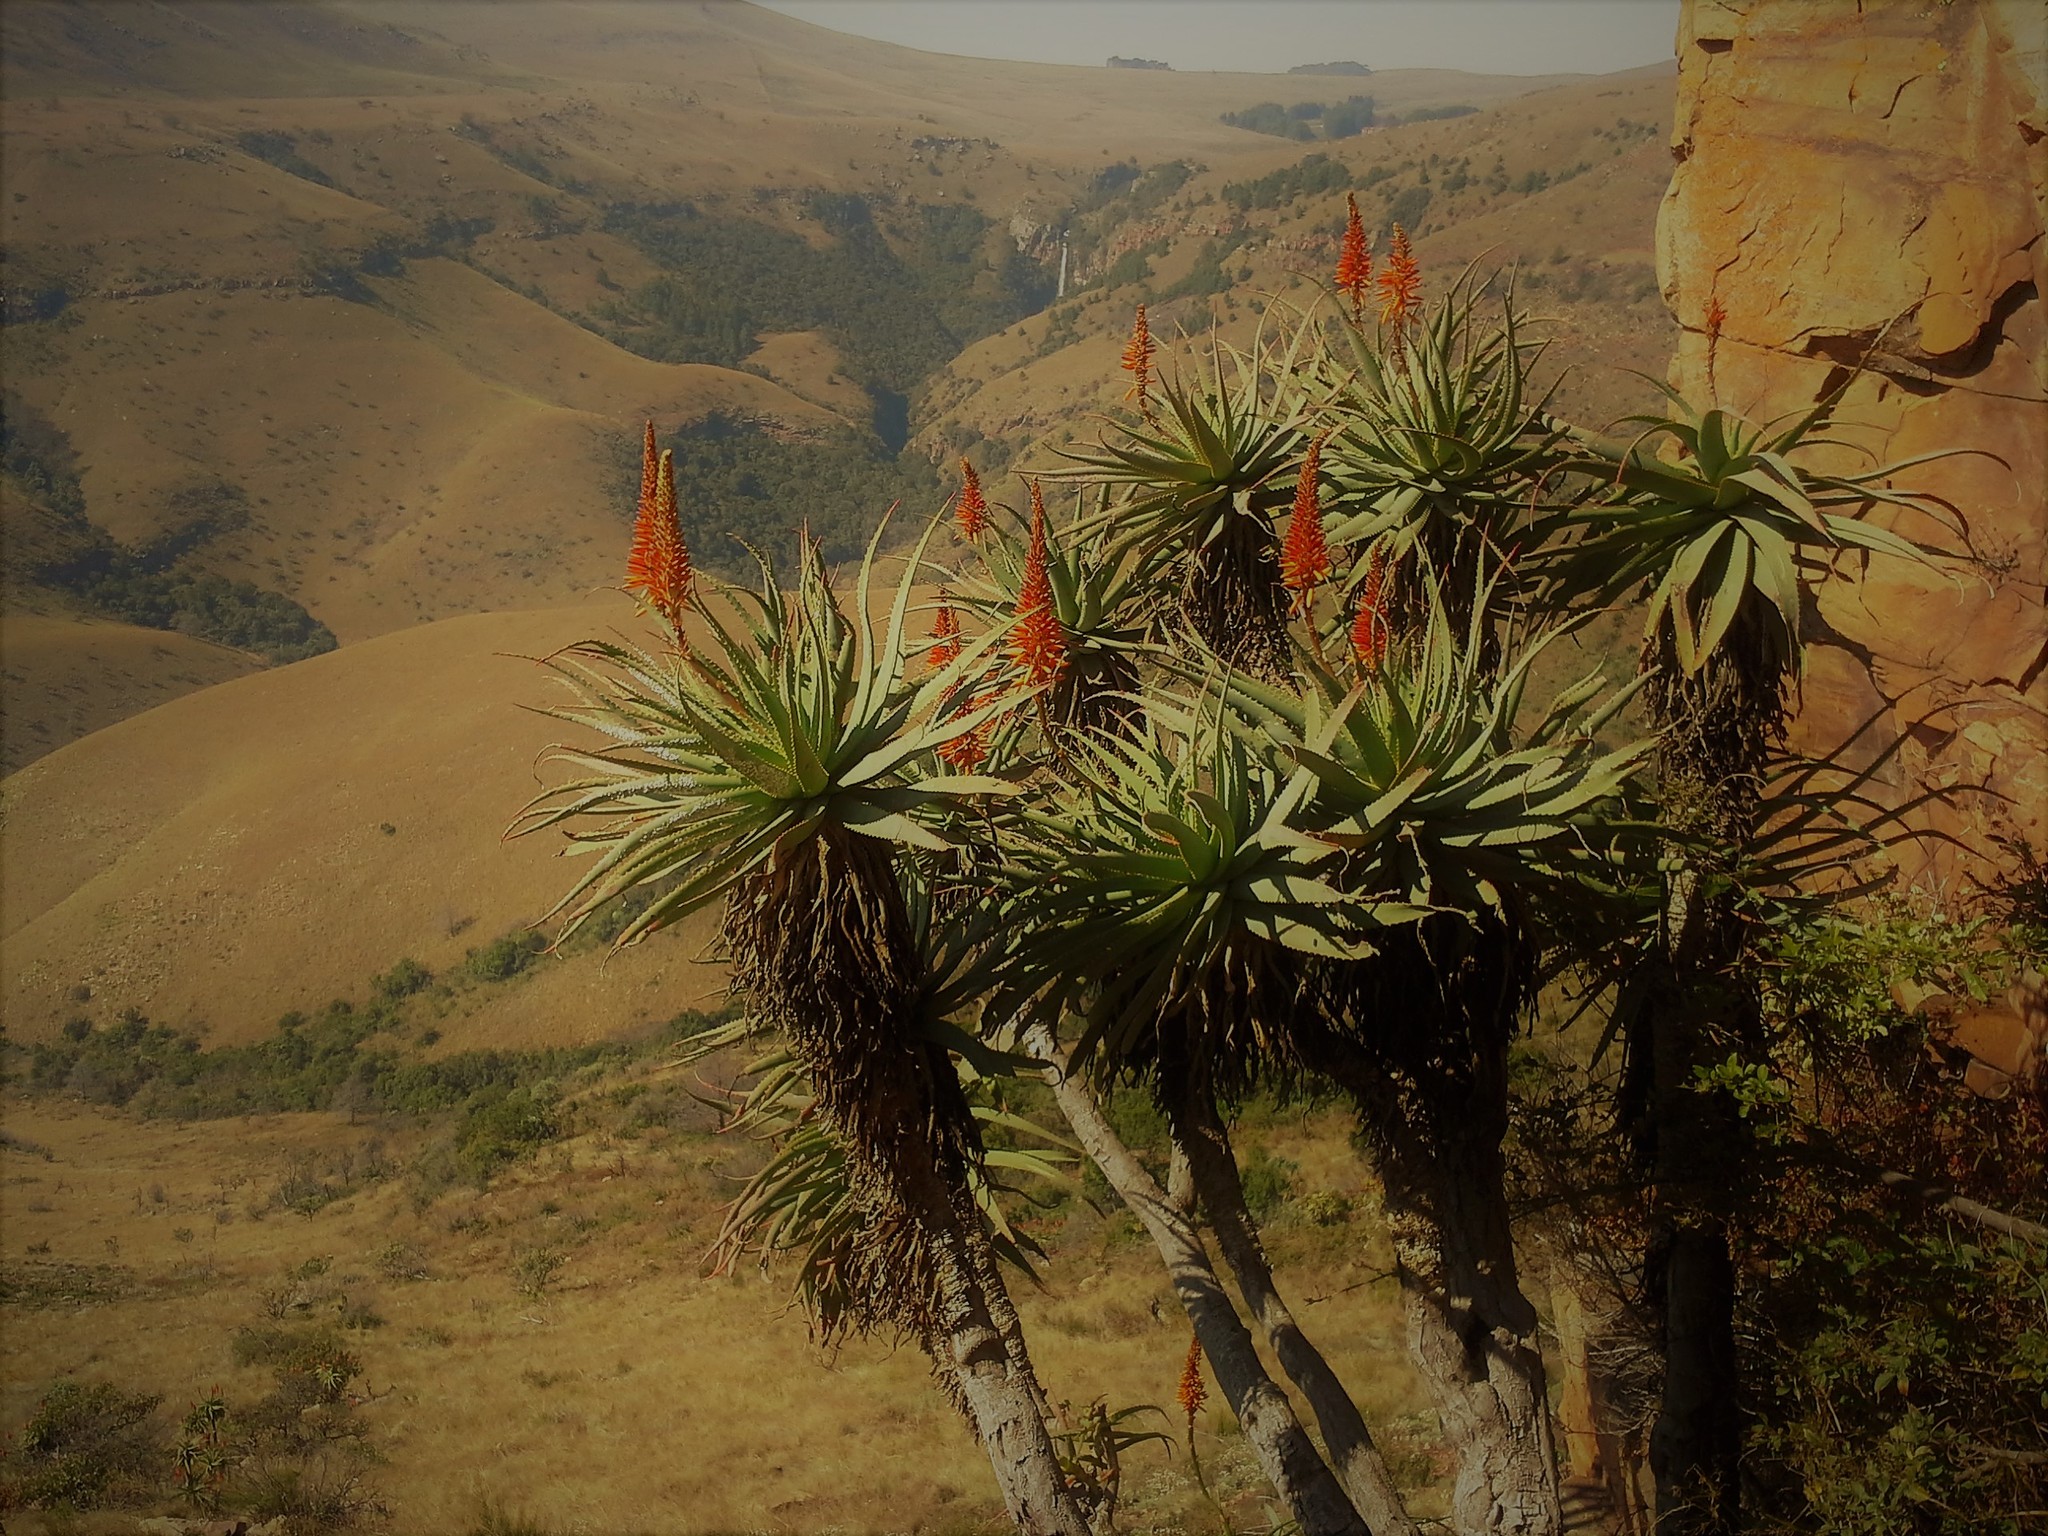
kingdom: Plantae
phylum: Tracheophyta
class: Liliopsida
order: Asparagales
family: Asphodelaceae
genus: Aloe
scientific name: Aloe arborescens
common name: Candelabra aloe
